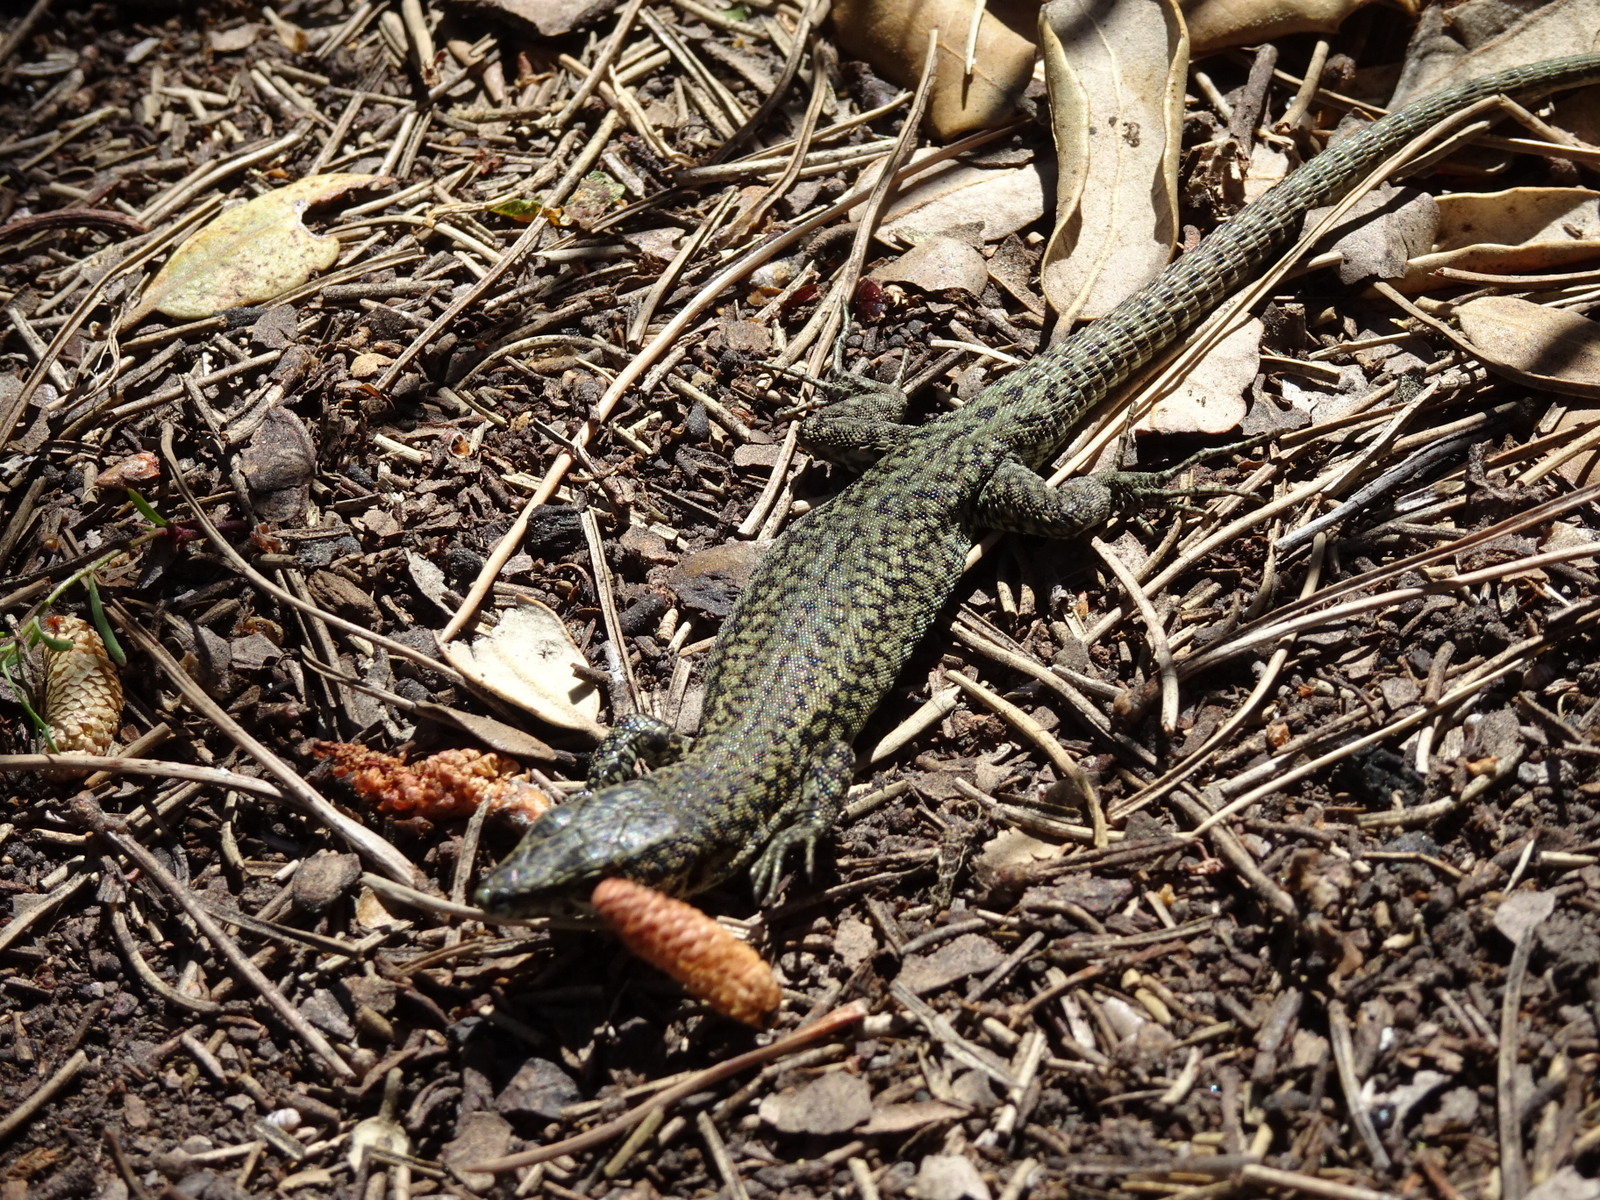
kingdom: Animalia
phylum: Chordata
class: Squamata
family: Lacertidae
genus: Podarcis
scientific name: Podarcis liolepis
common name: Catalonian wall lizard
